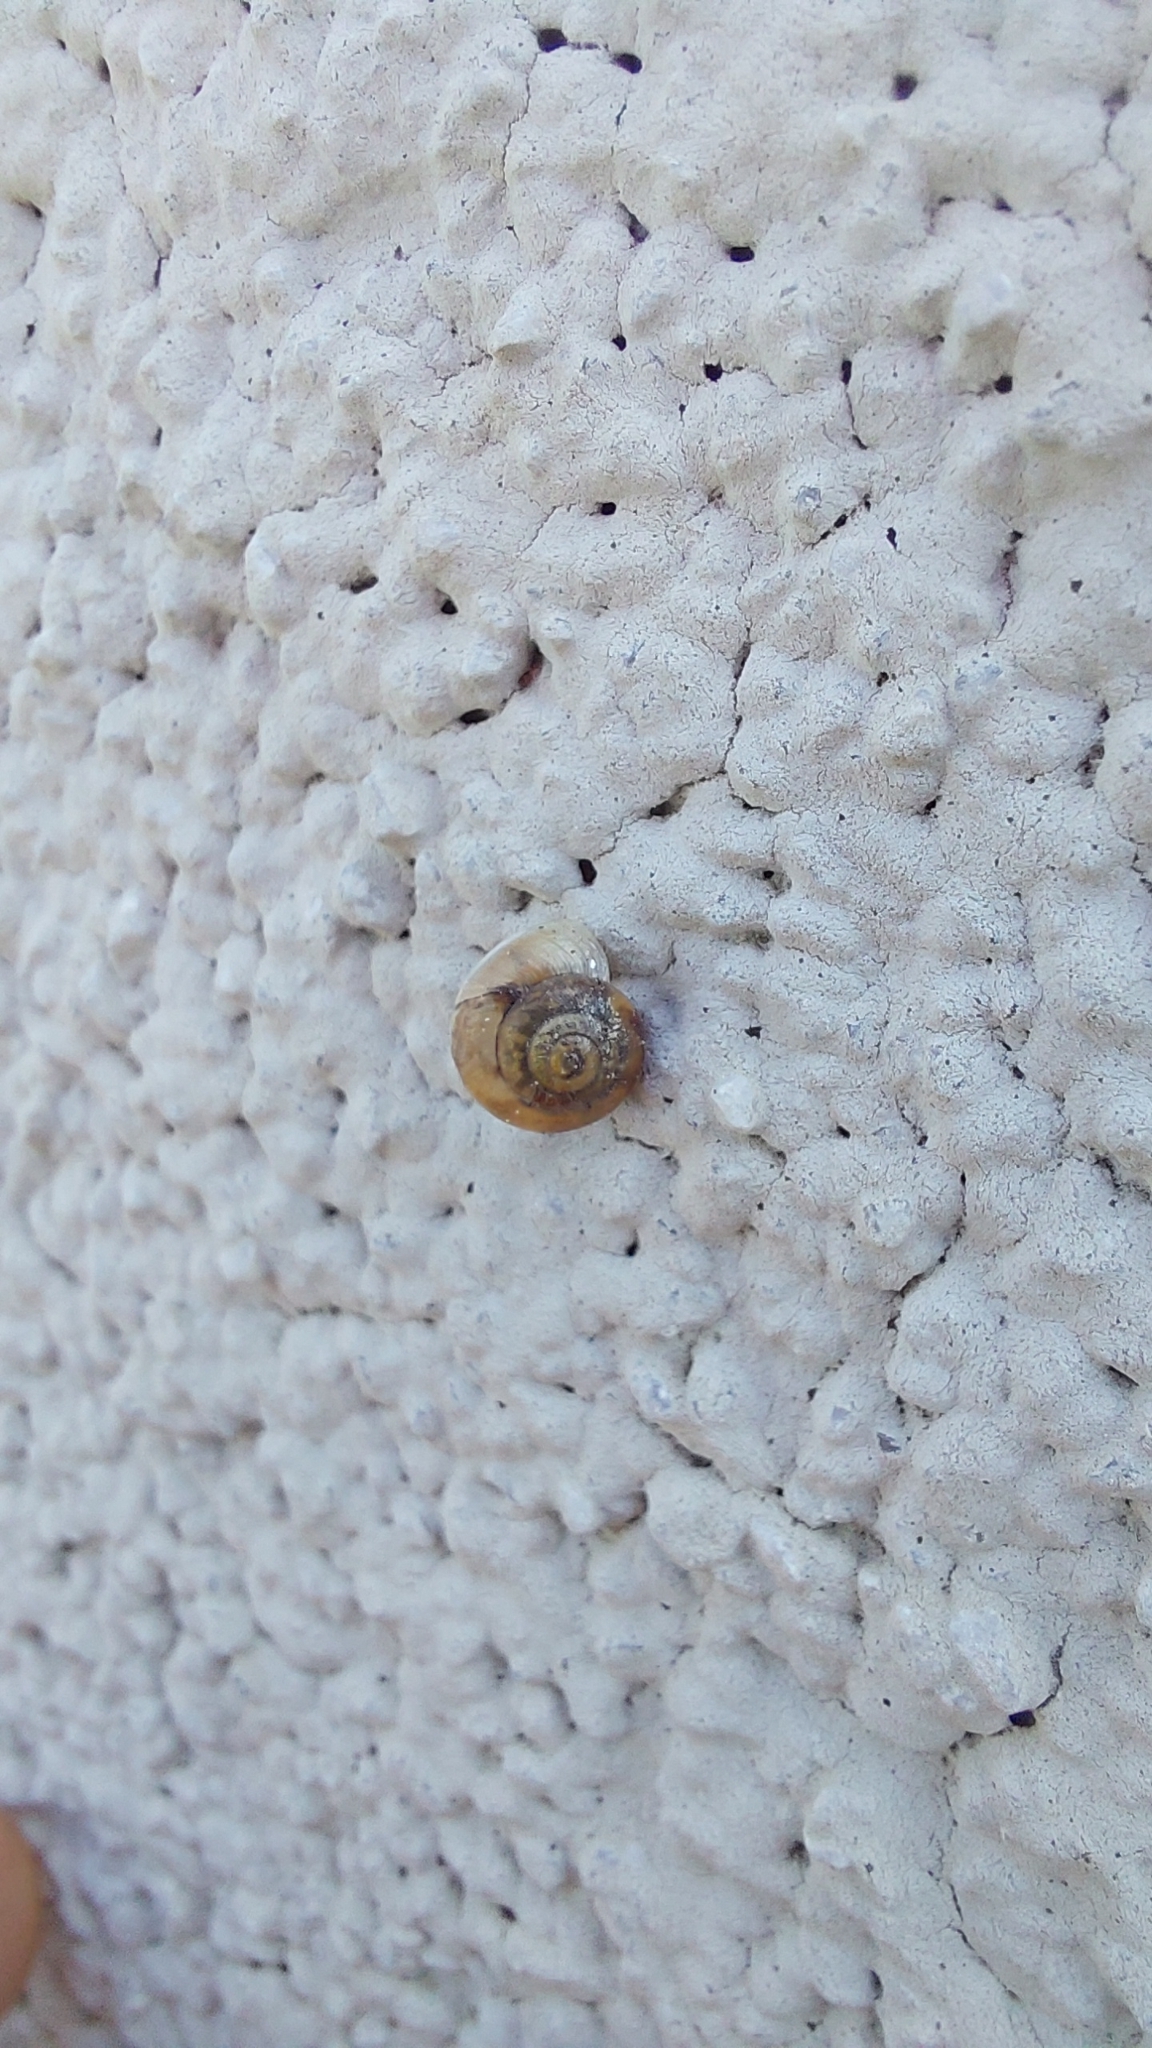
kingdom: Animalia
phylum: Mollusca
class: Gastropoda
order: Stylommatophora
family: Hygromiidae
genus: Urticicola
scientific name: Urticicola umbrosus
